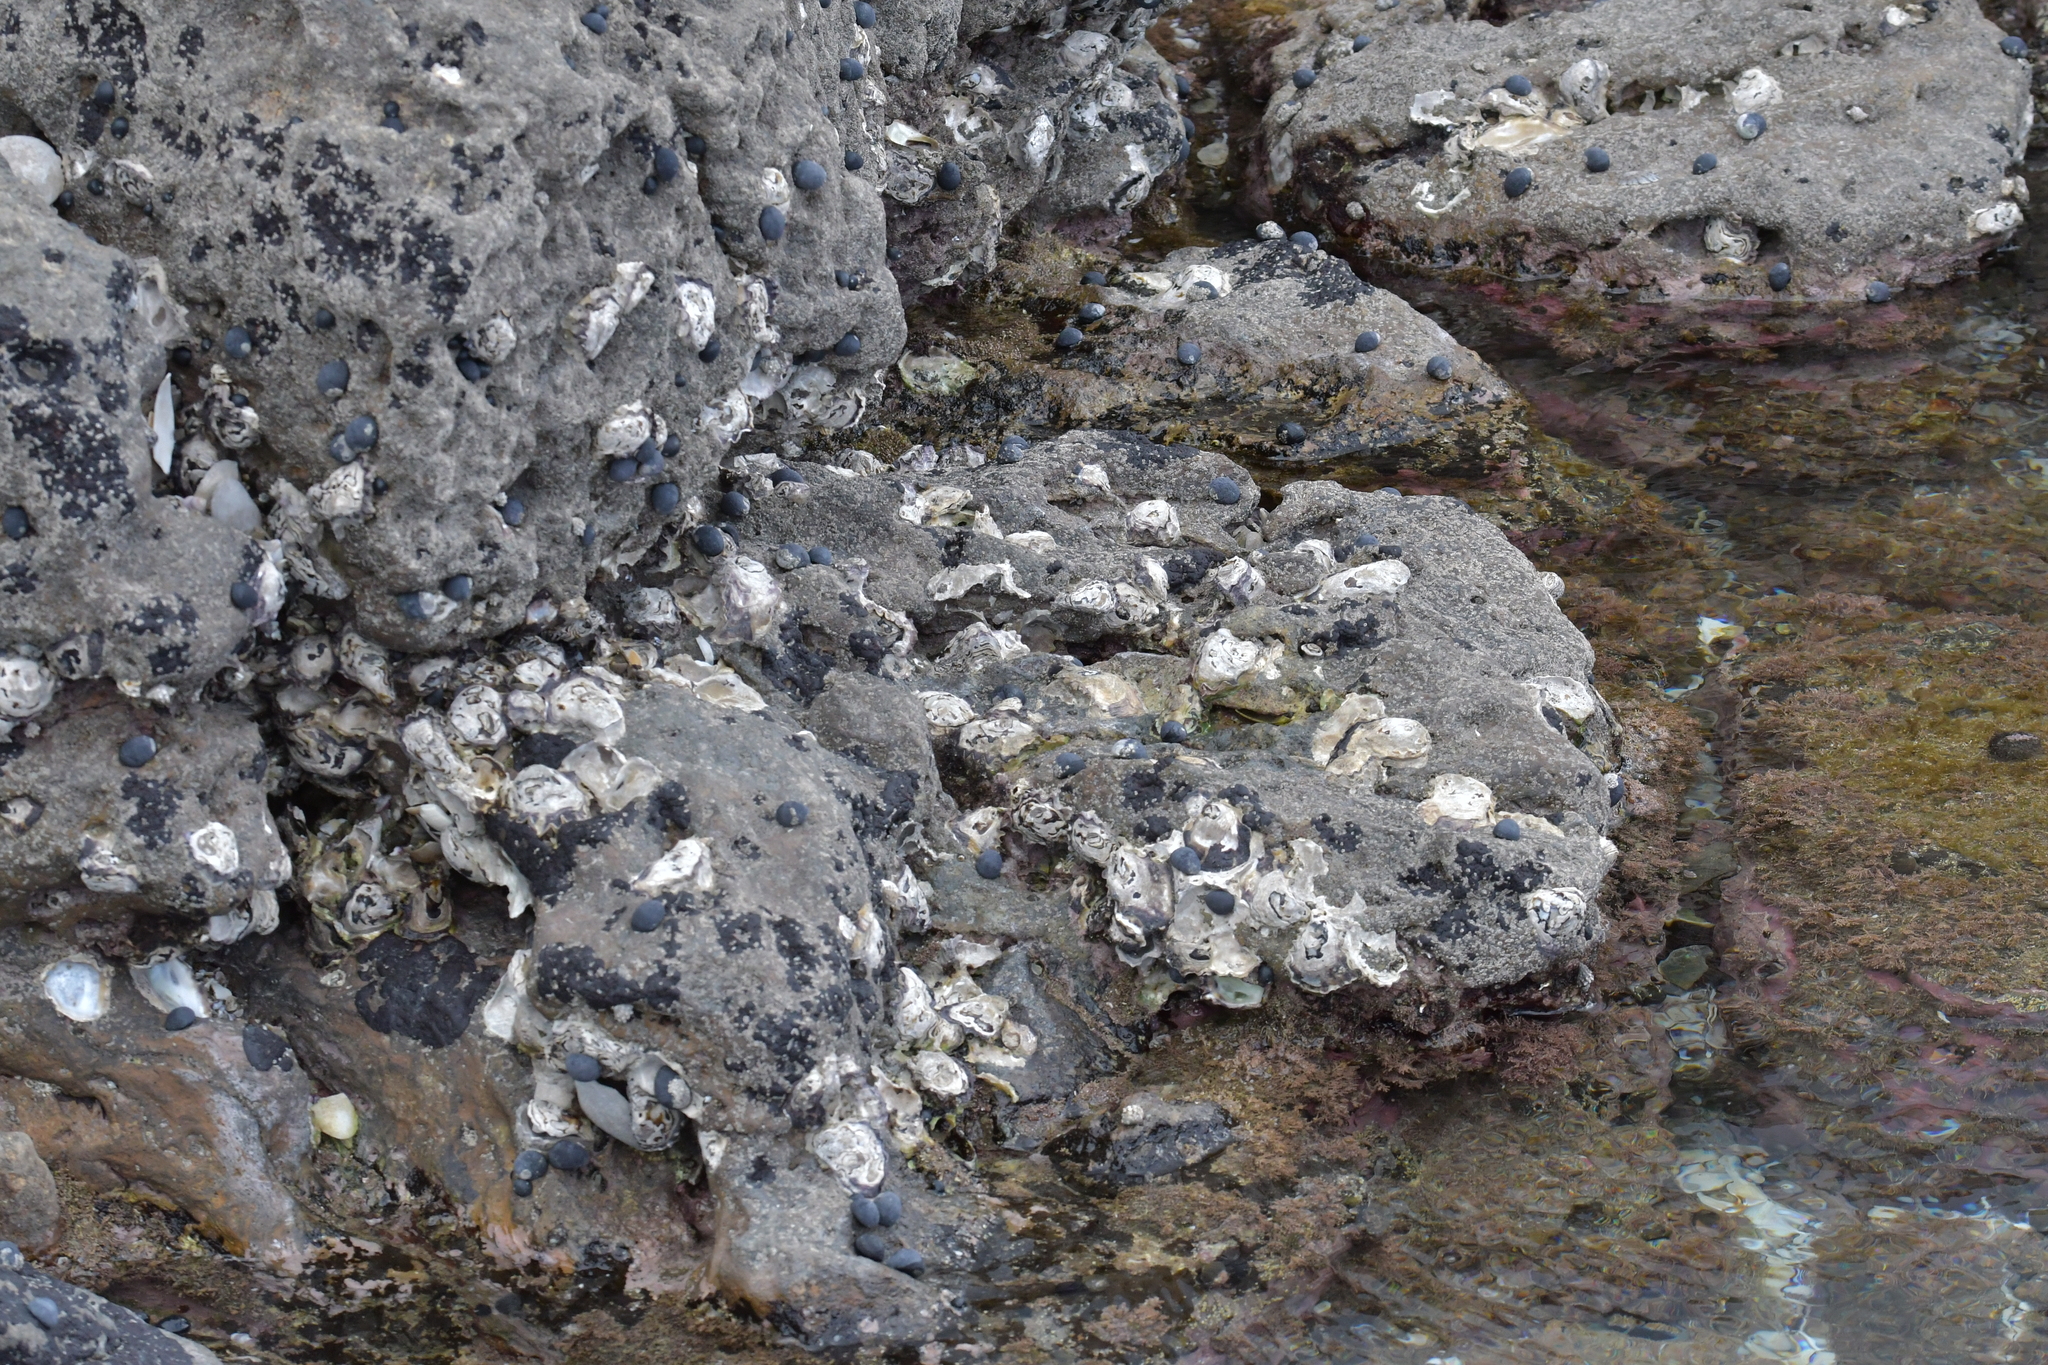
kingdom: Animalia
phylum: Mollusca
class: Bivalvia
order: Ostreida
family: Ostreidae
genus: Saccostrea
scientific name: Saccostrea glomerata
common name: Sydney cupped oyster
